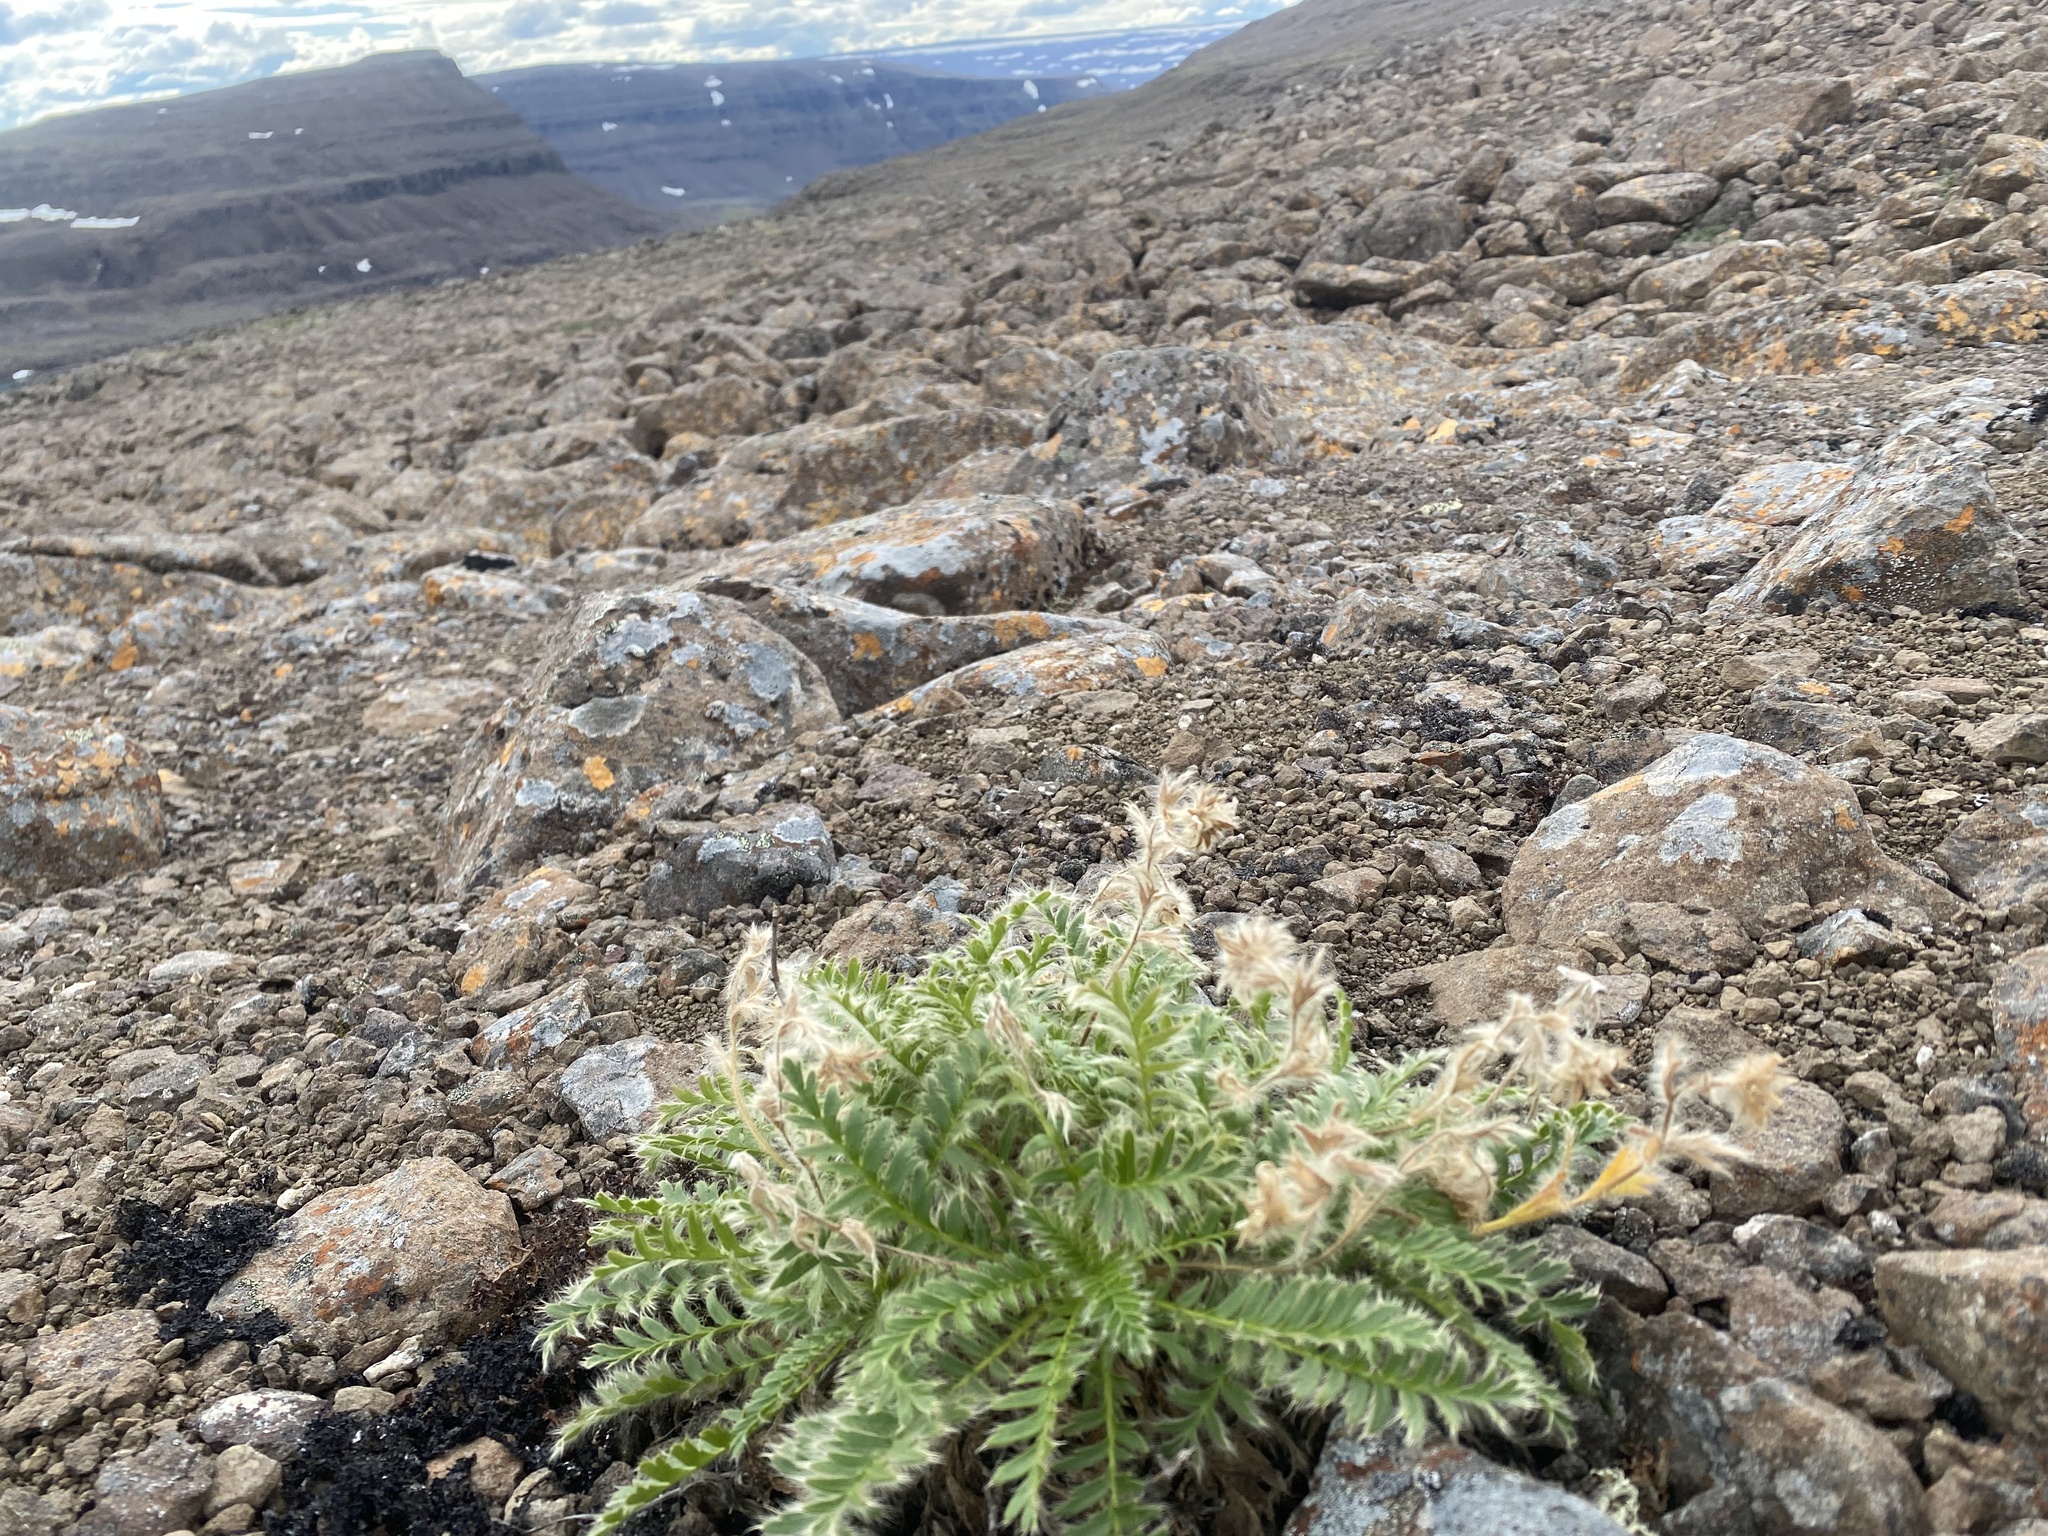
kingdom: Plantae
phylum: Tracheophyta
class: Magnoliopsida
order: Rosales
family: Rosaceae
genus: Geum
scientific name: Geum glaciale
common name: Glacier avens
